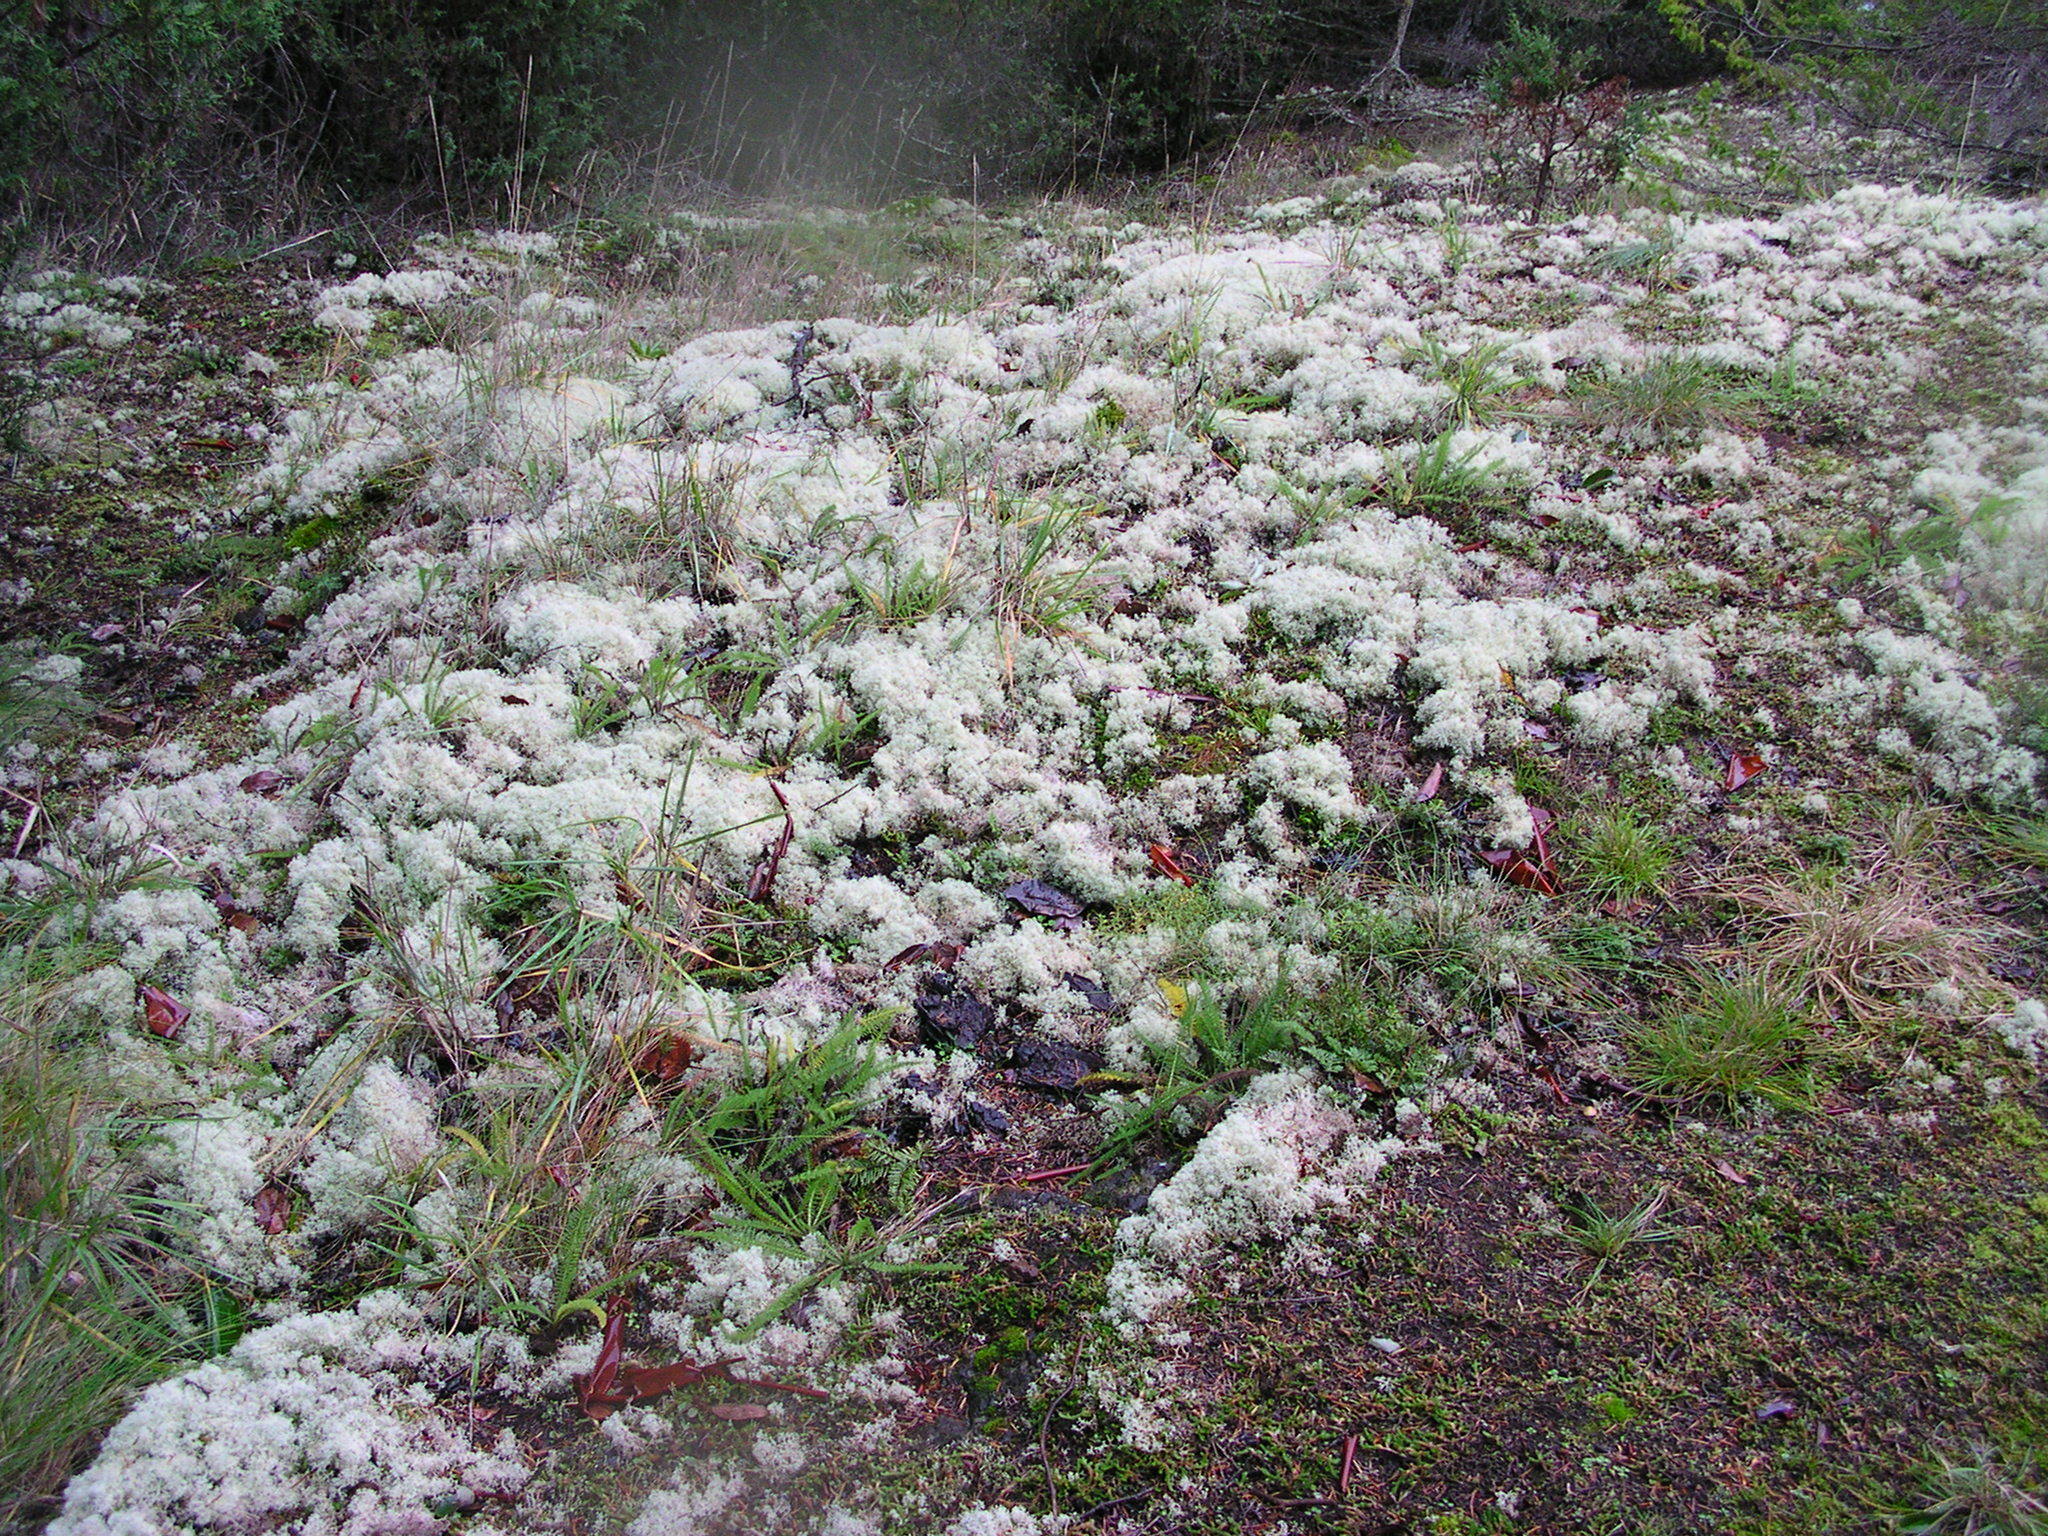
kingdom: Fungi
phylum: Ascomycota
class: Lecanoromycetes
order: Lecanorales
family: Cladoniaceae
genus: Cladonia
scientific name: Cladonia portentosa
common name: Reindeer lichen
